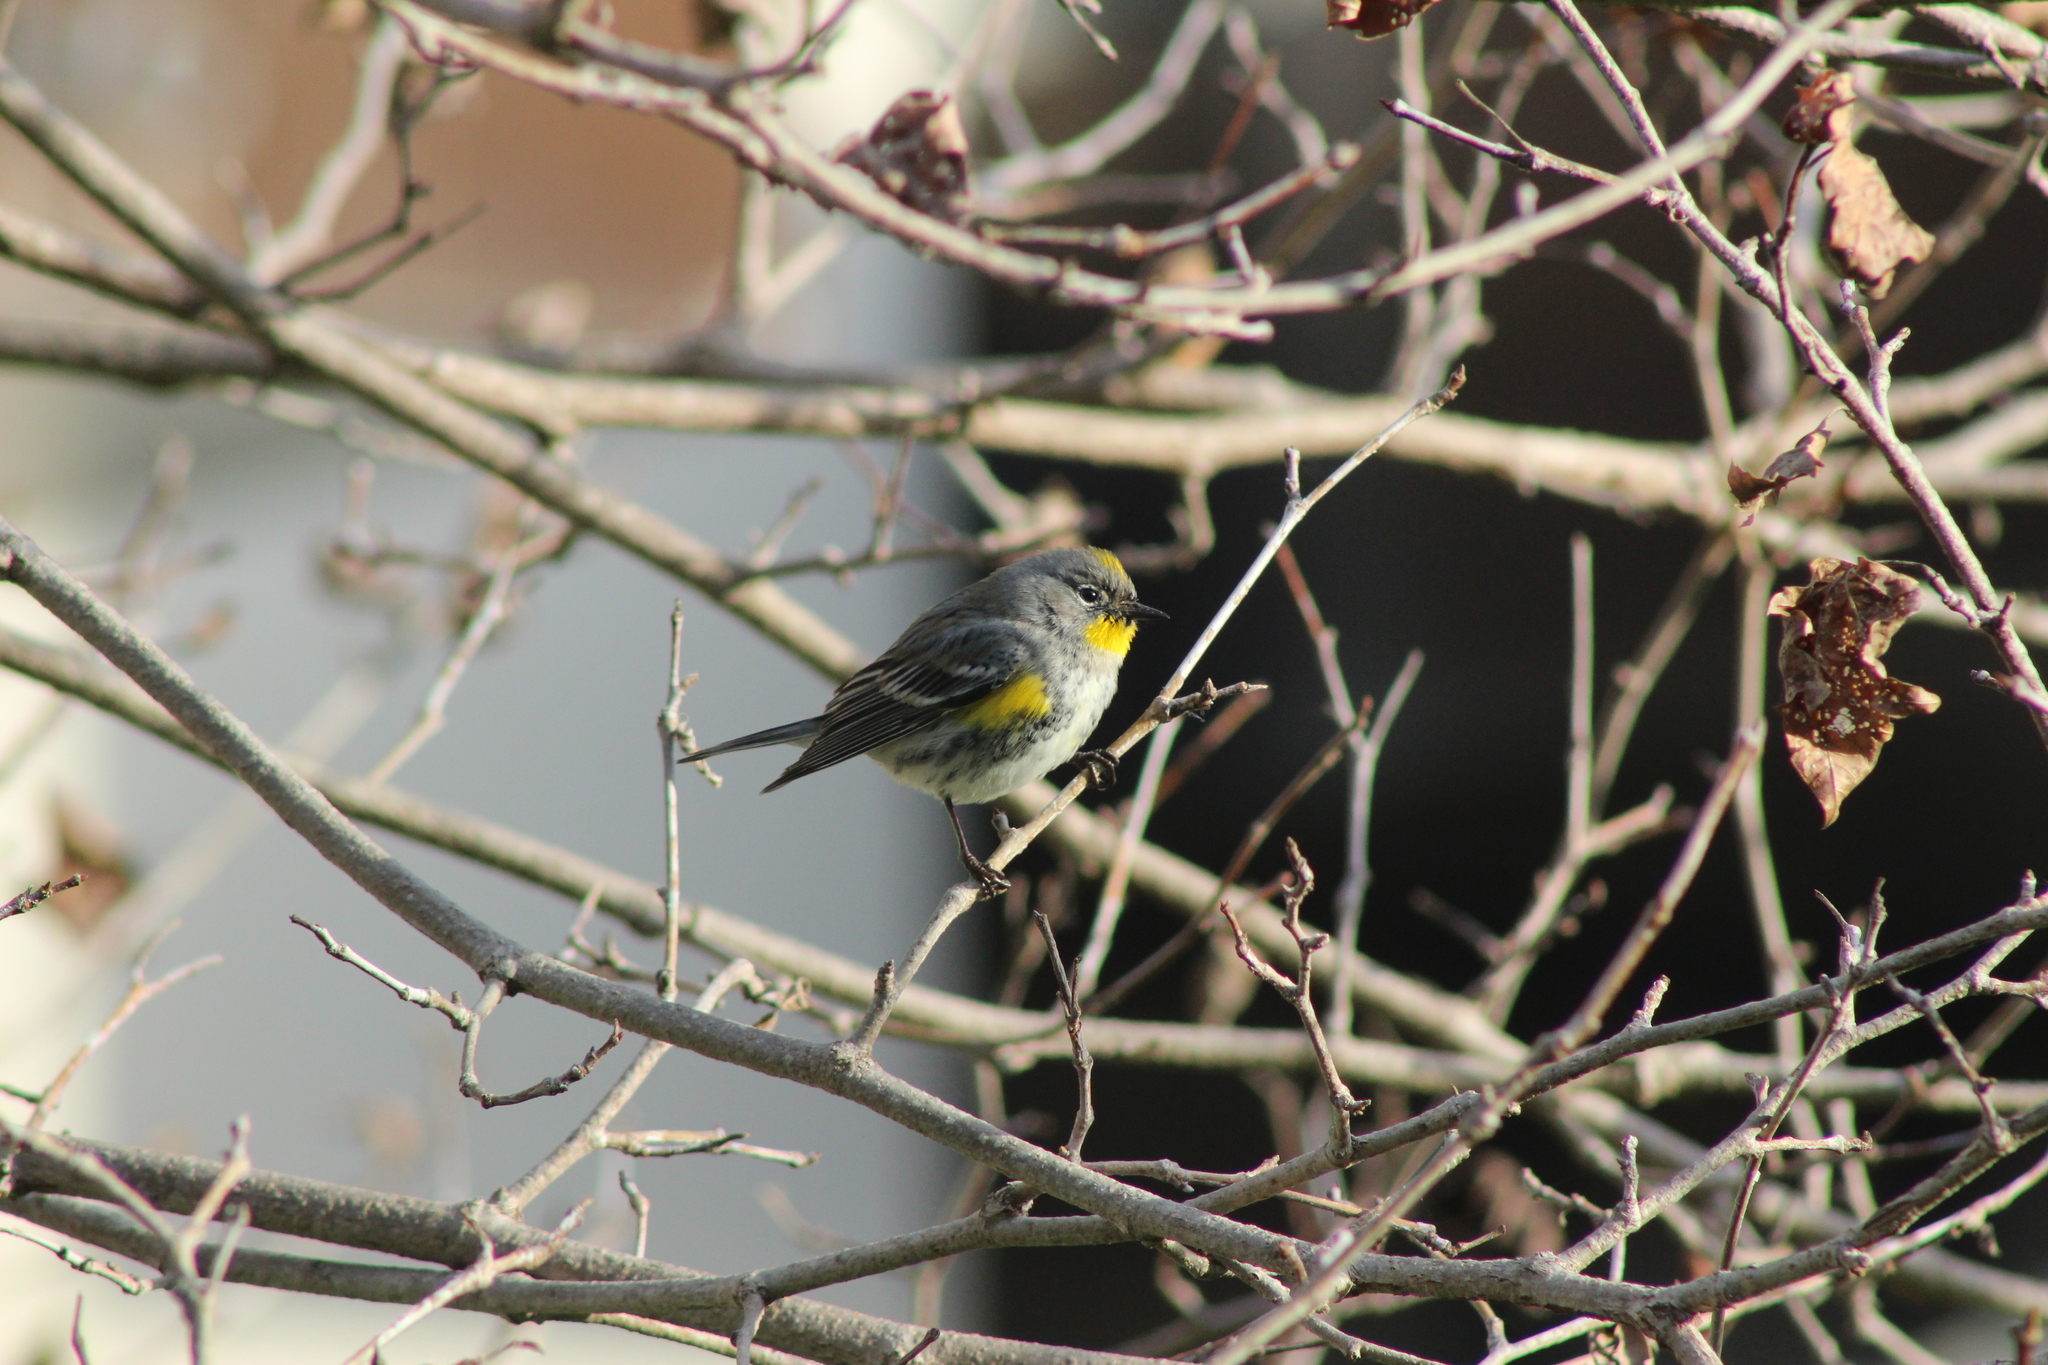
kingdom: Animalia
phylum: Chordata
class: Aves
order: Passeriformes
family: Parulidae
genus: Setophaga
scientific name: Setophaga auduboni
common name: Audubon's warbler
